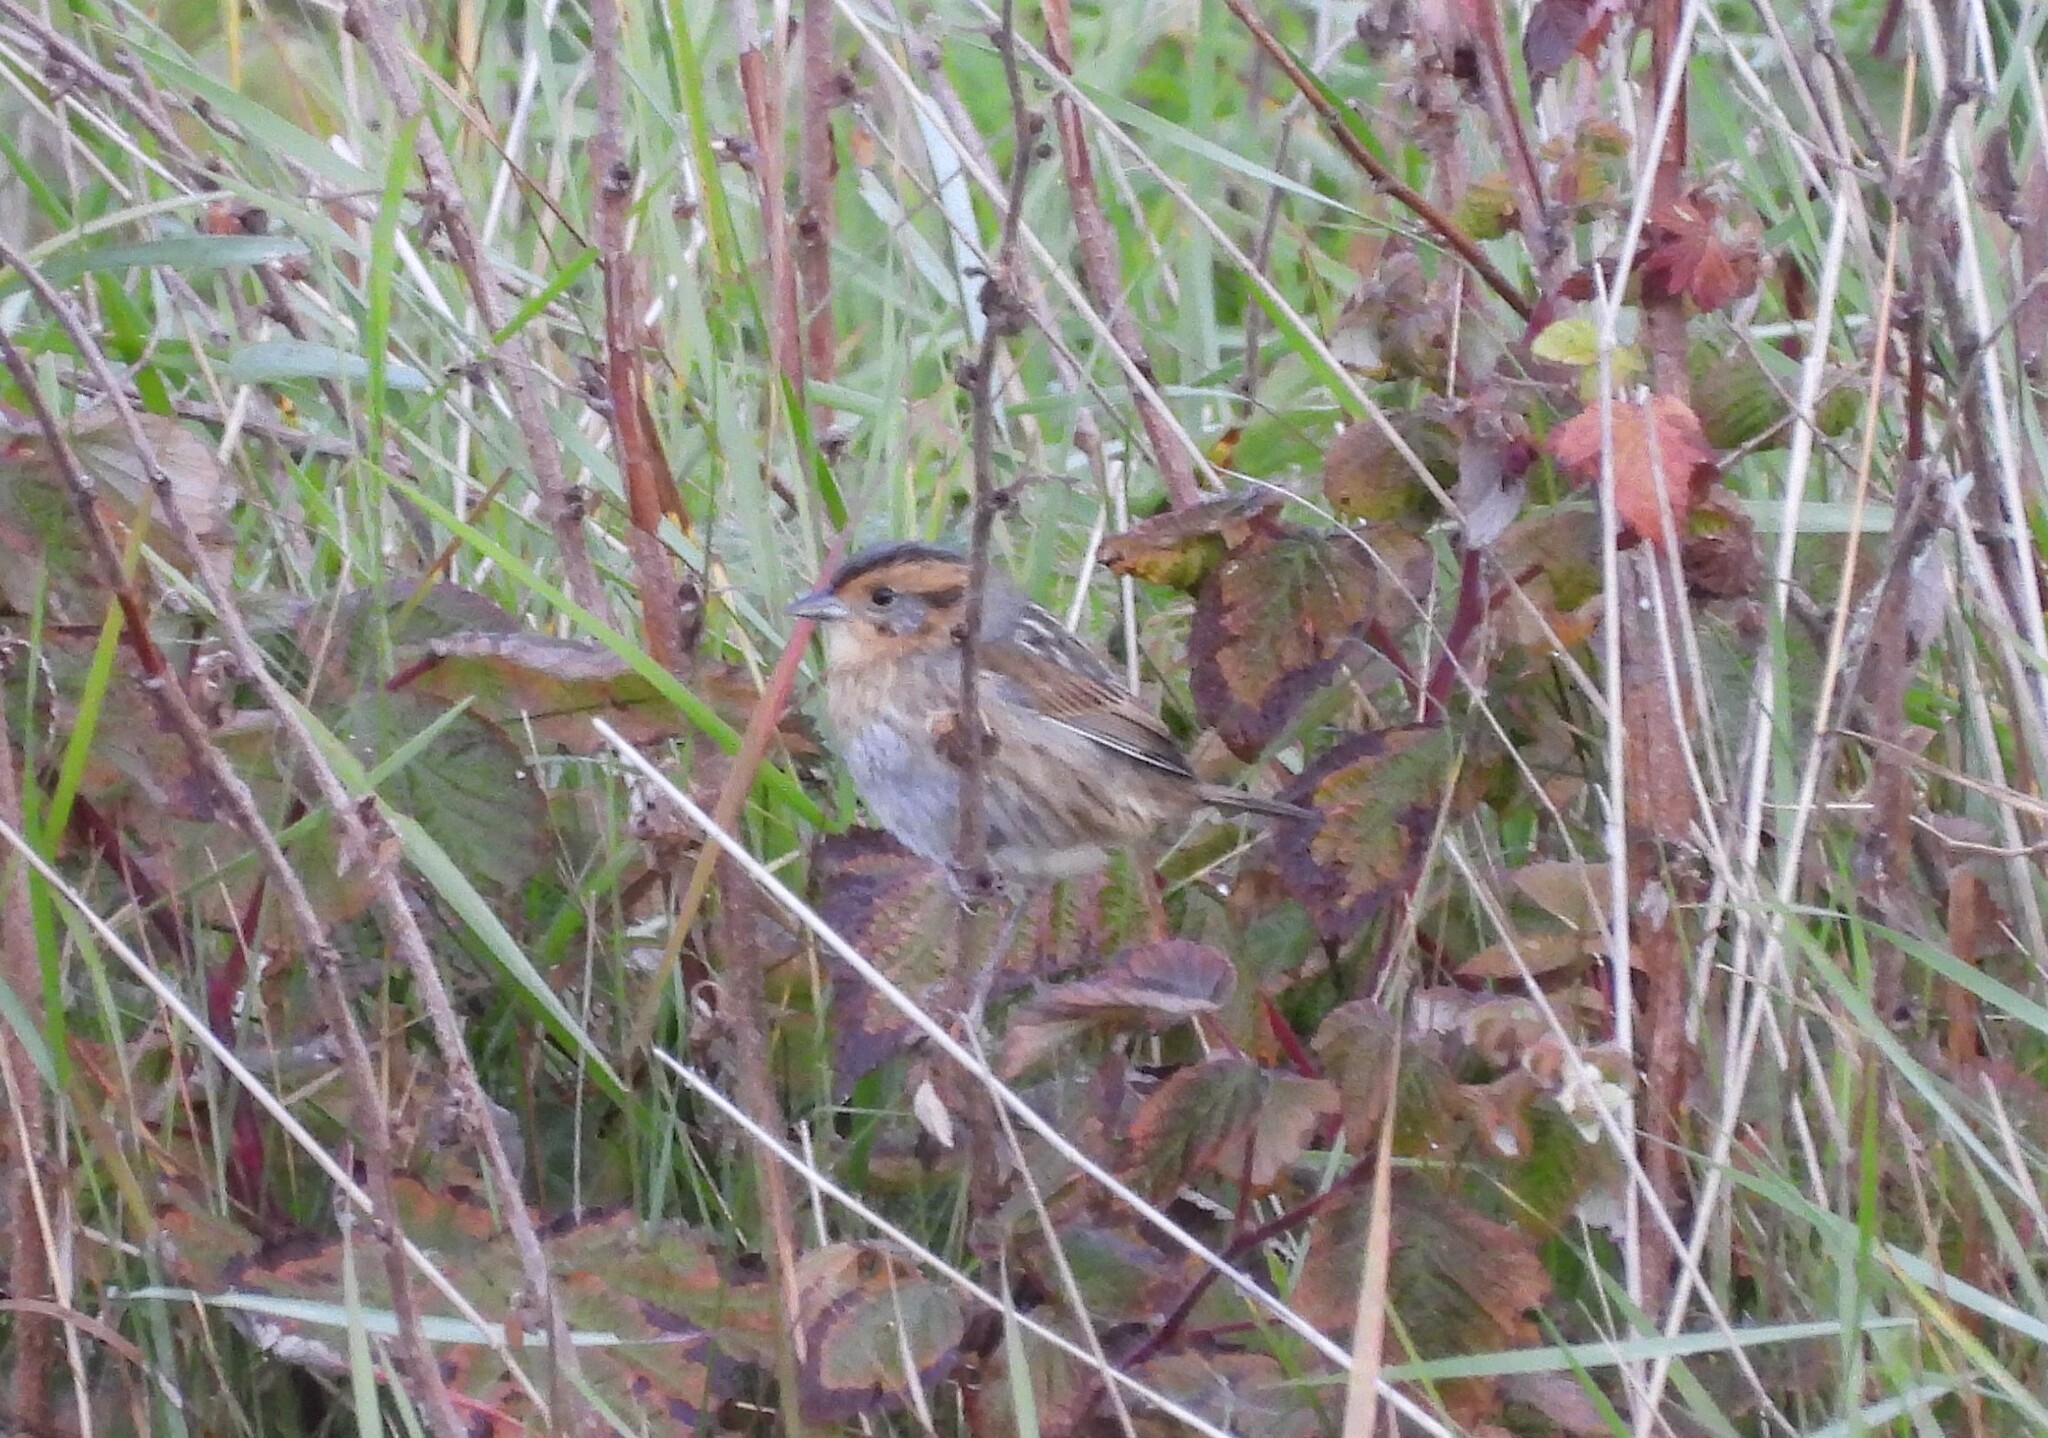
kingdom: Animalia
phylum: Chordata
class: Aves
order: Passeriformes
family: Passerellidae
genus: Ammospiza
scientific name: Ammospiza nelsoni
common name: Nelson's sparrow
